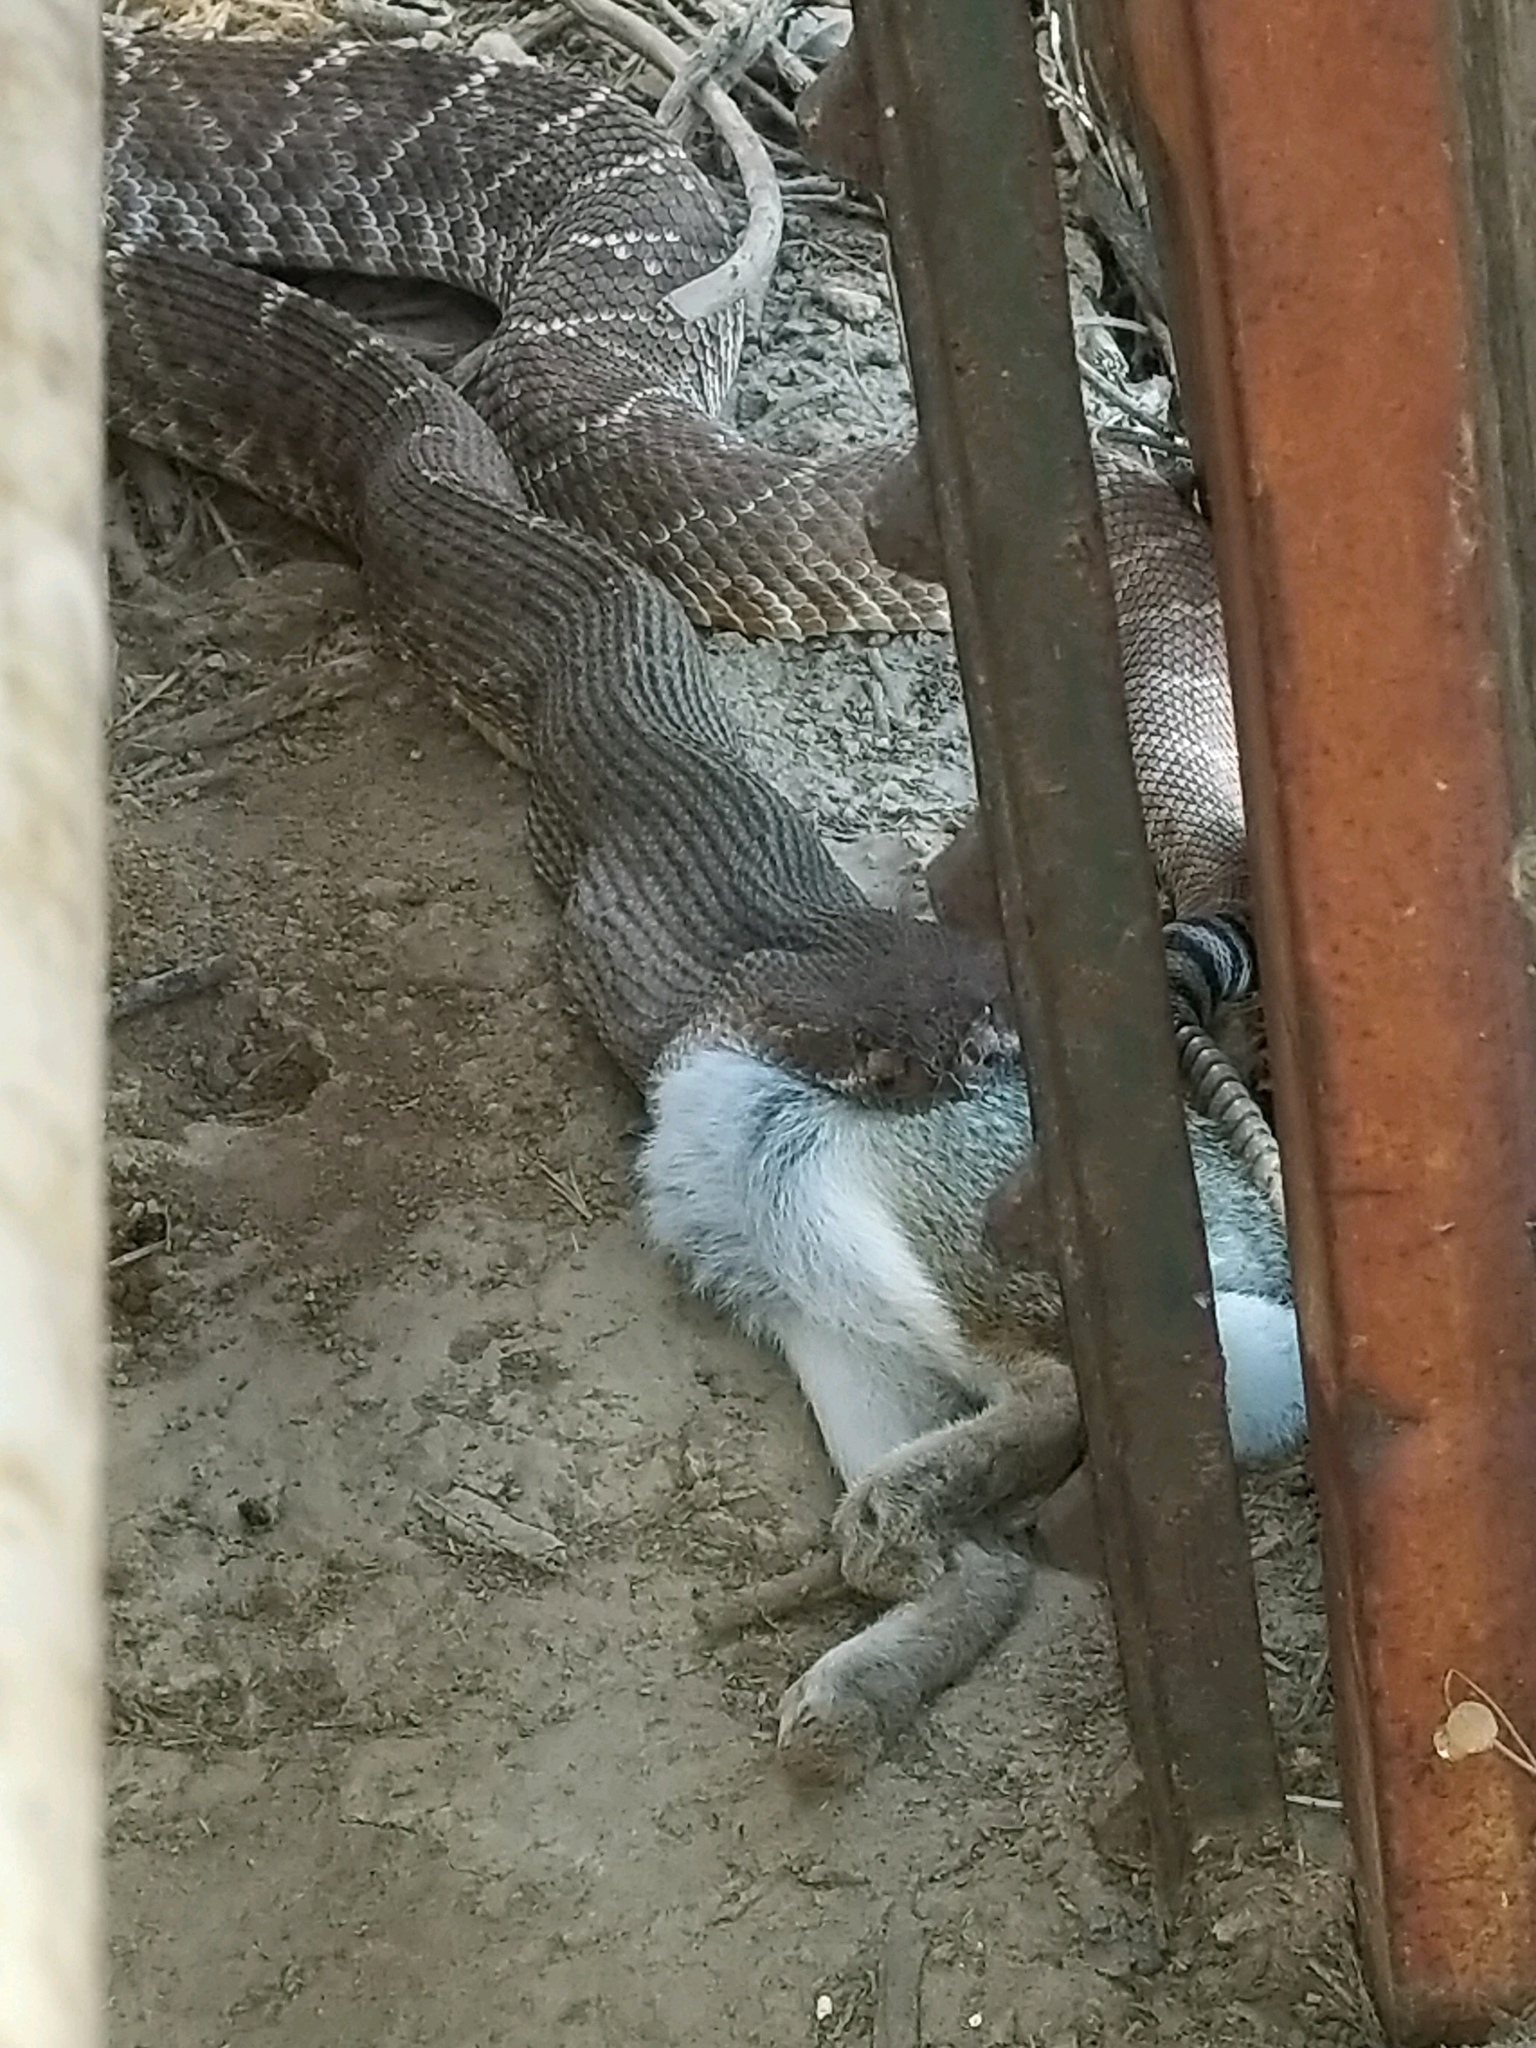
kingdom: Animalia
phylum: Chordata
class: Squamata
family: Viperidae
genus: Crotalus
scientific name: Crotalus ruber
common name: Red diamond rattlesnake
